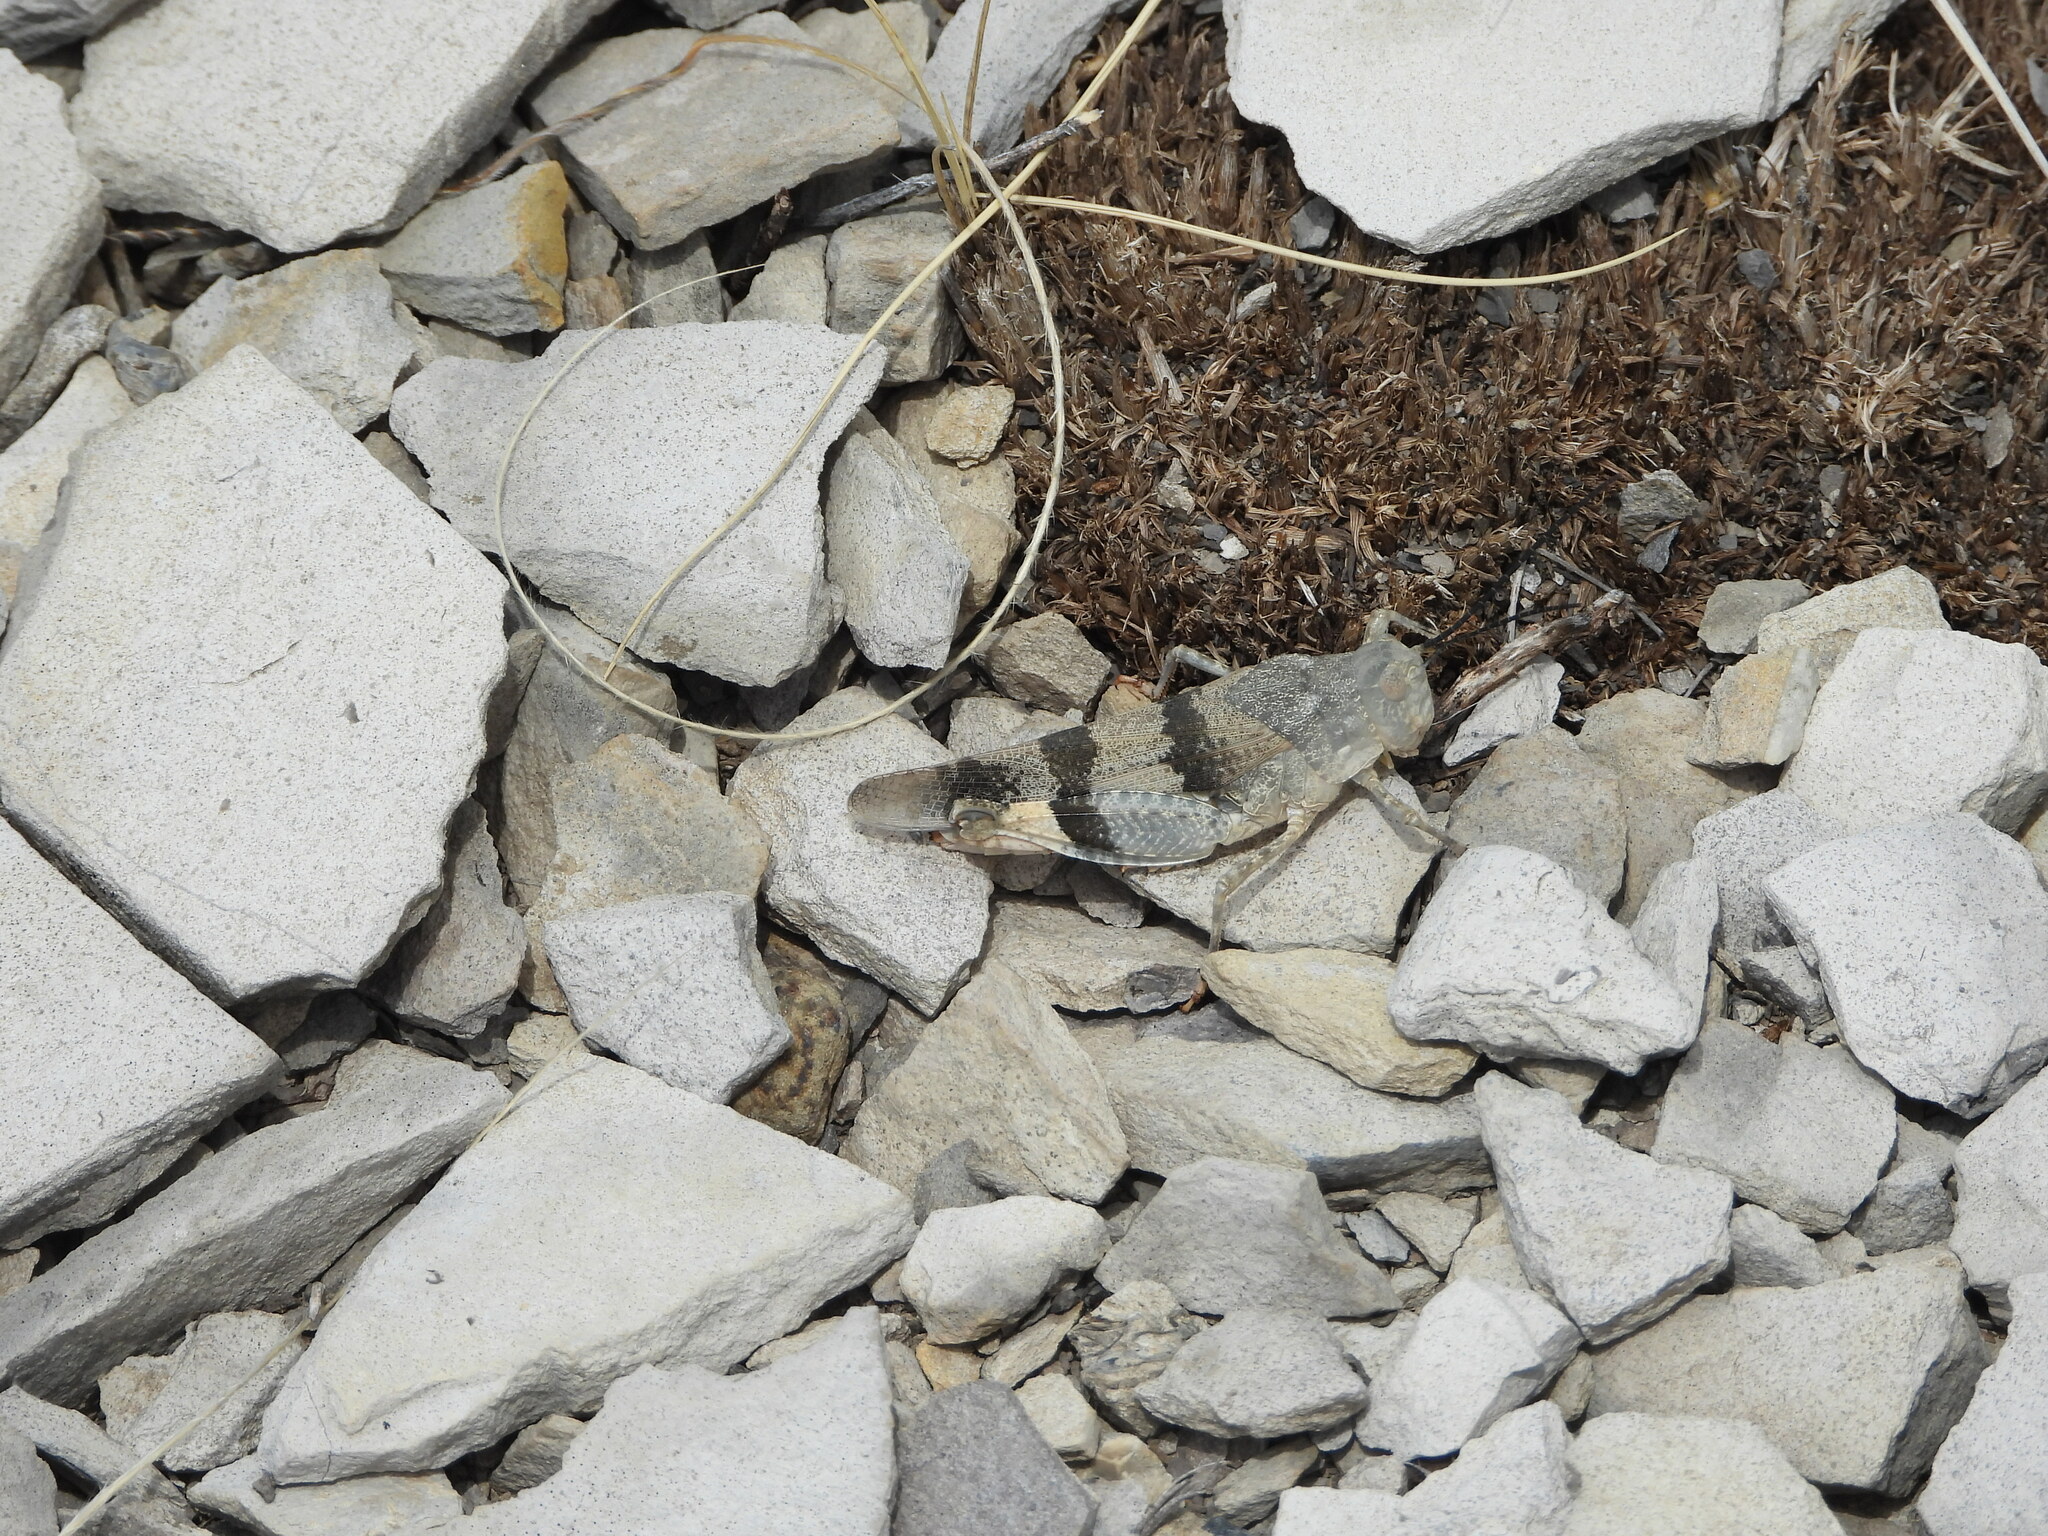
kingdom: Animalia
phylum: Arthropoda
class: Insecta
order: Orthoptera
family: Acrididae
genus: Hadrotettix
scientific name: Hadrotettix trifasciatus
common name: Threebanded grasshopper
